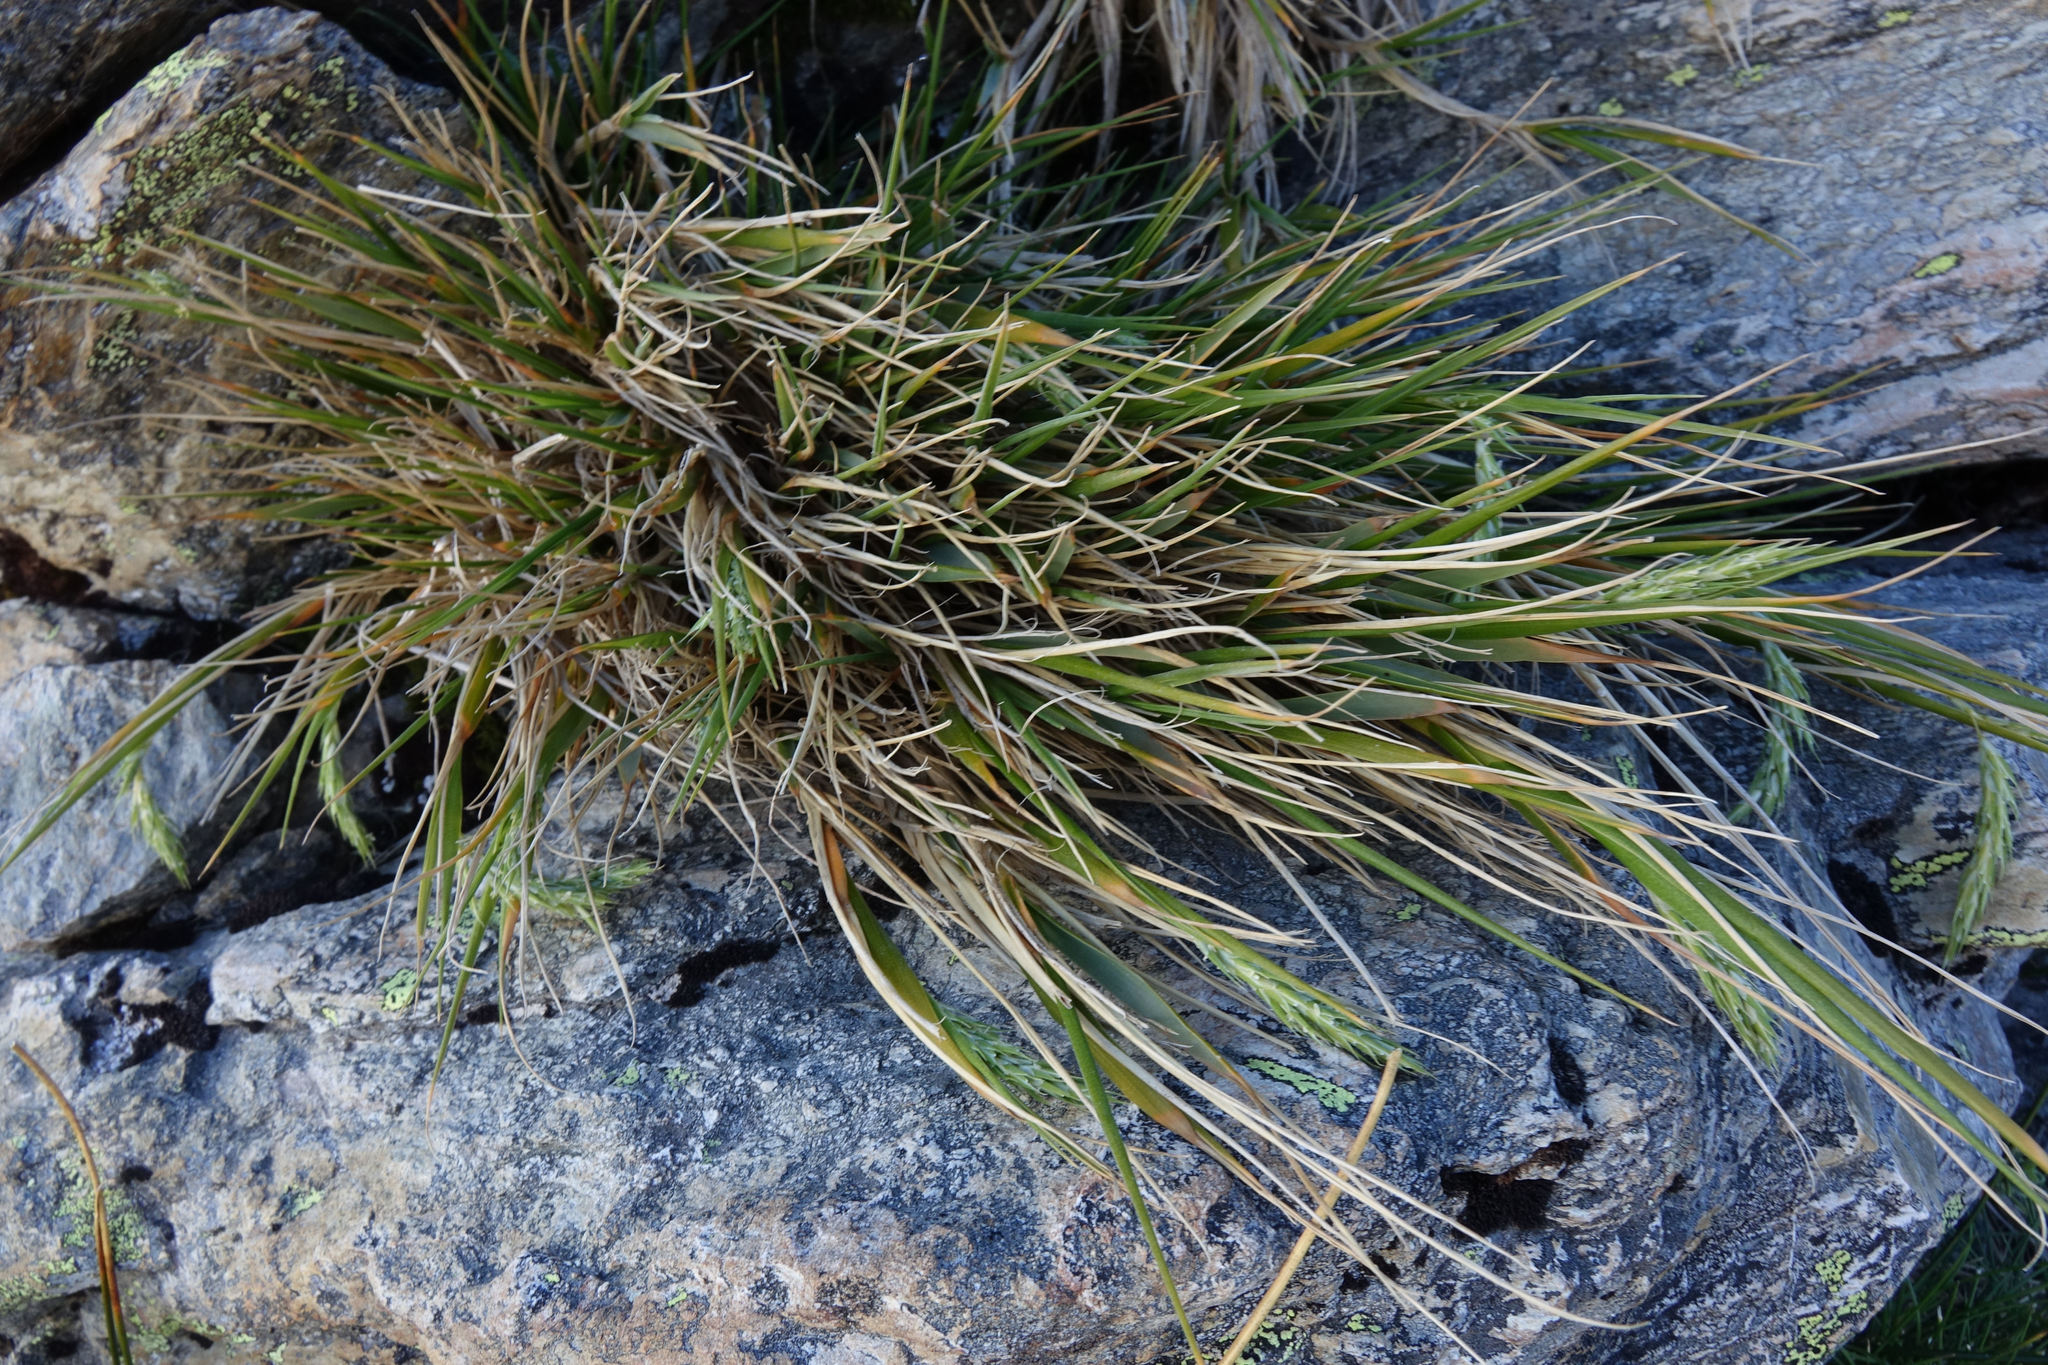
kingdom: Plantae
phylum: Tracheophyta
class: Liliopsida
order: Poales
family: Poaceae
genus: Zotovia
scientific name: Zotovia colensoi
